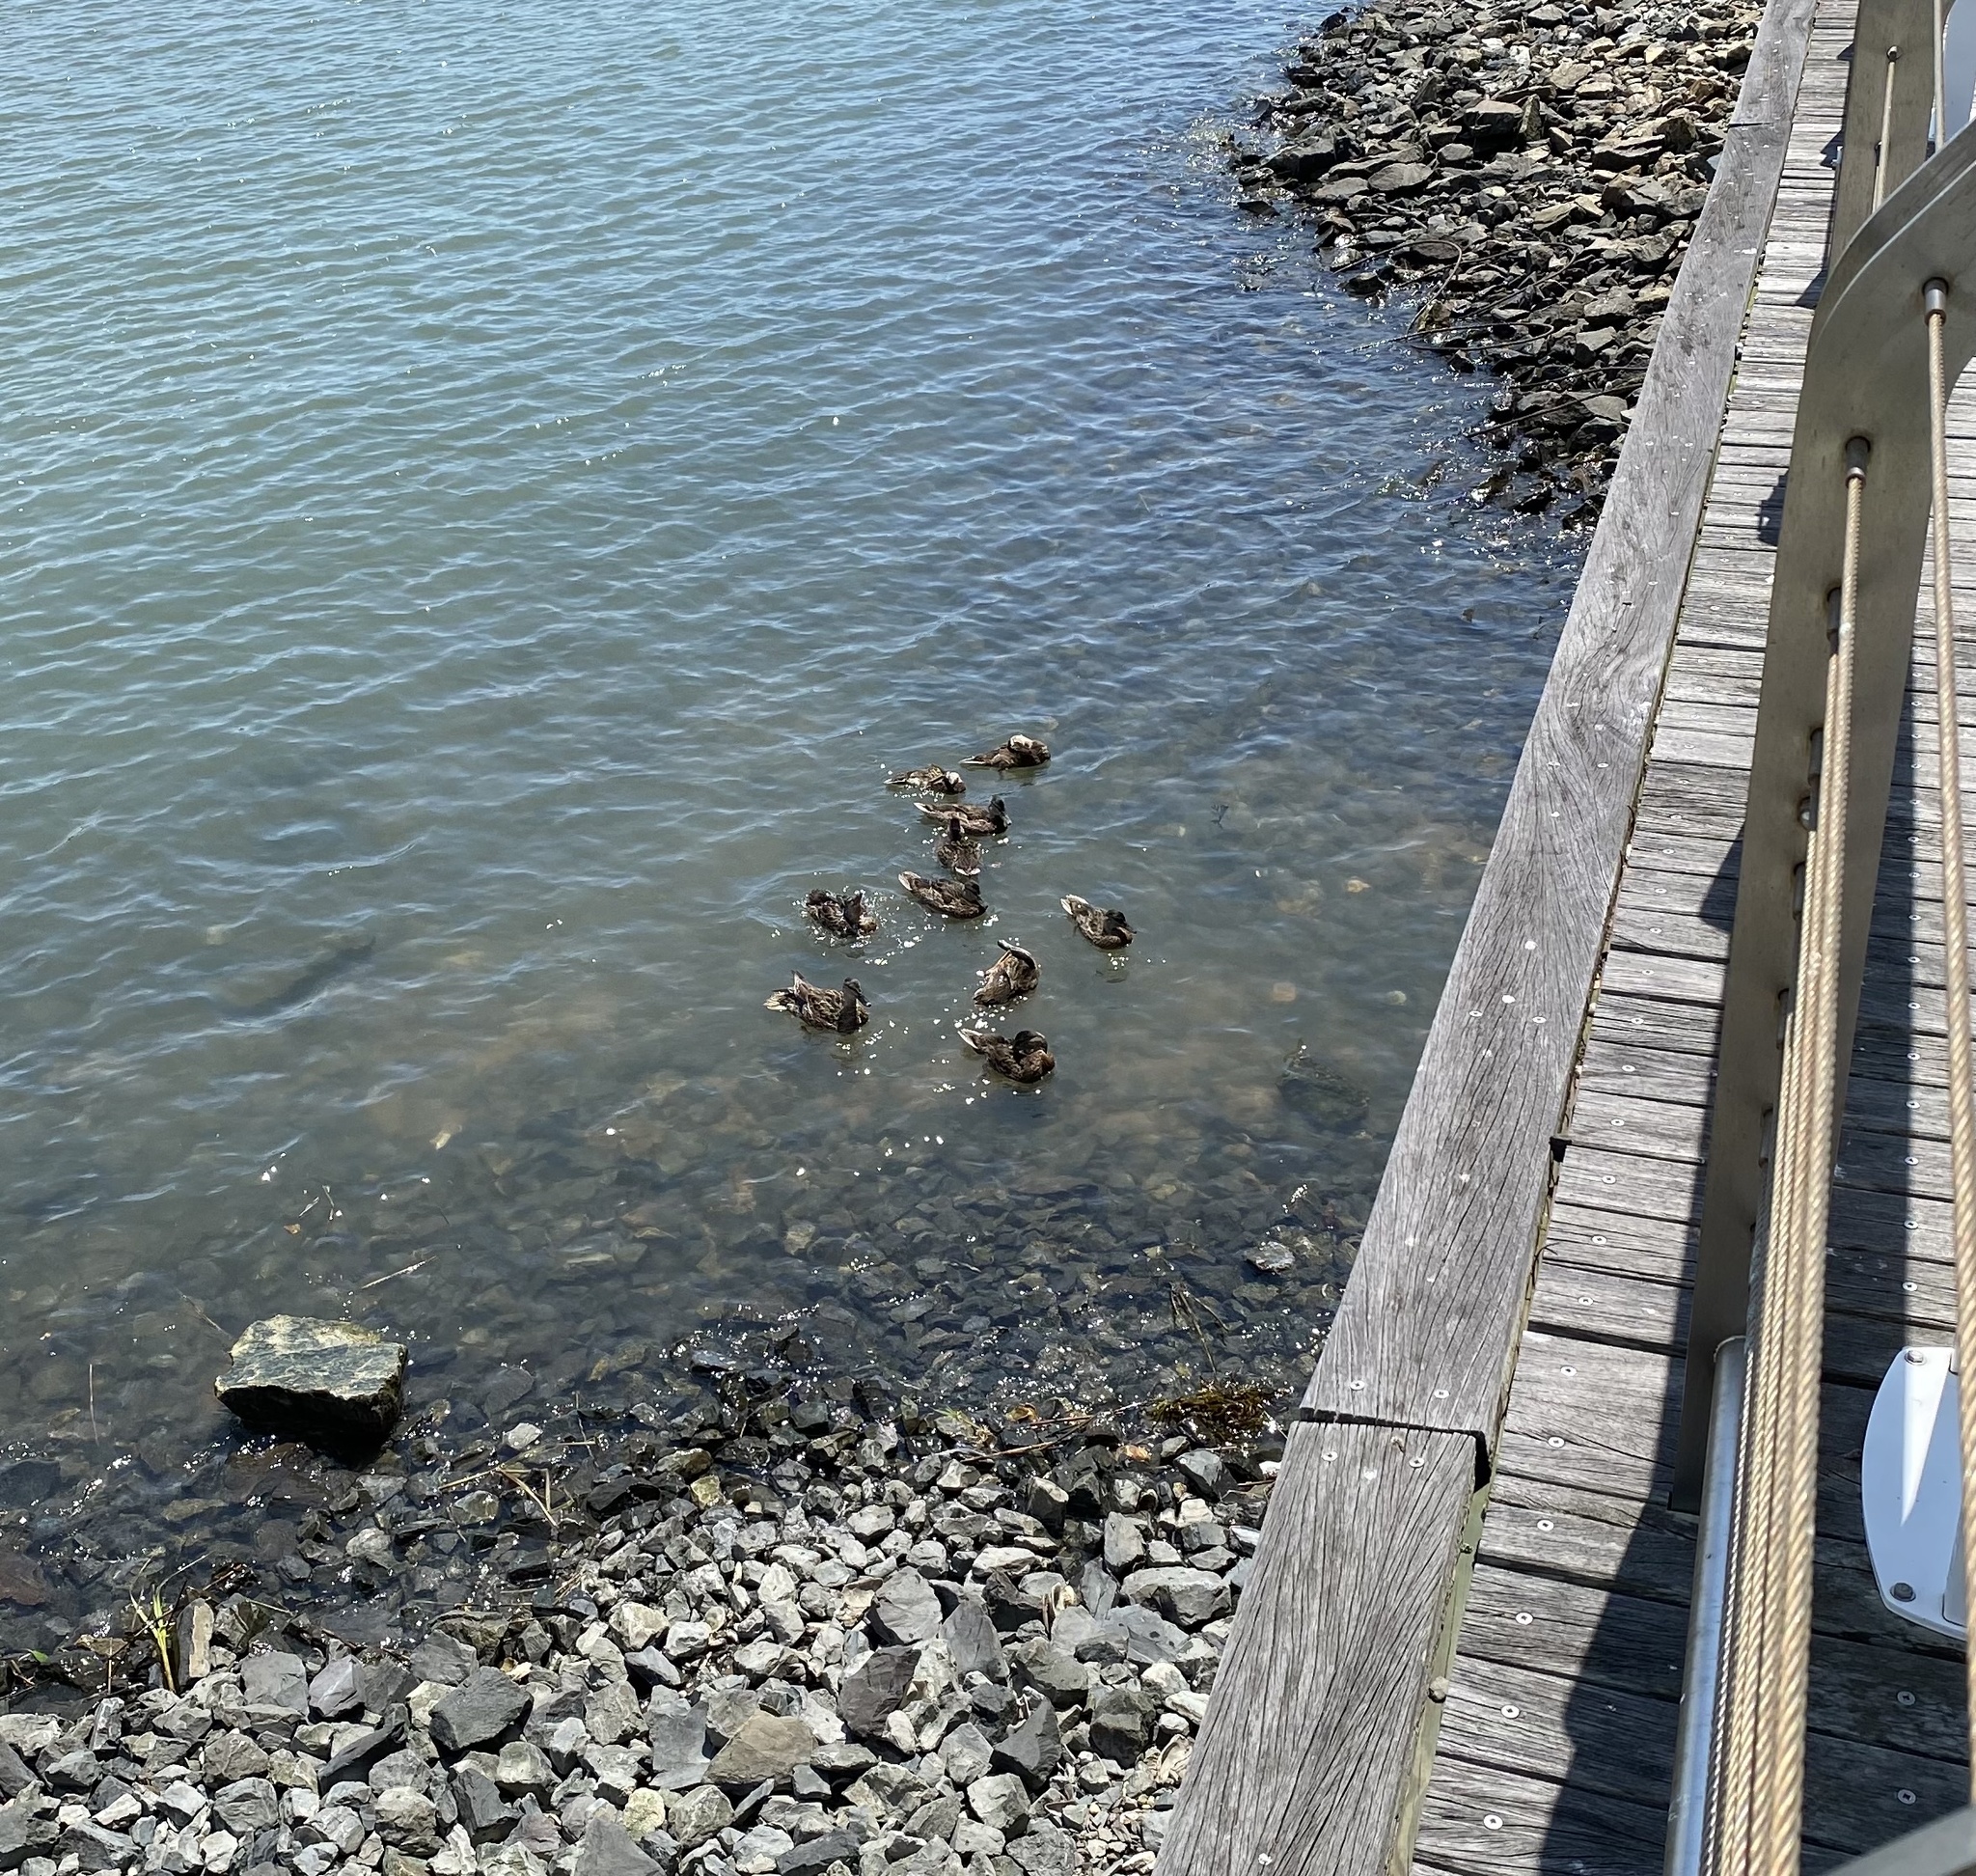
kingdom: Animalia
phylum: Chordata
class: Aves
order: Anseriformes
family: Anatidae
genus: Anas
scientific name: Anas platyrhynchos
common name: Mallard
